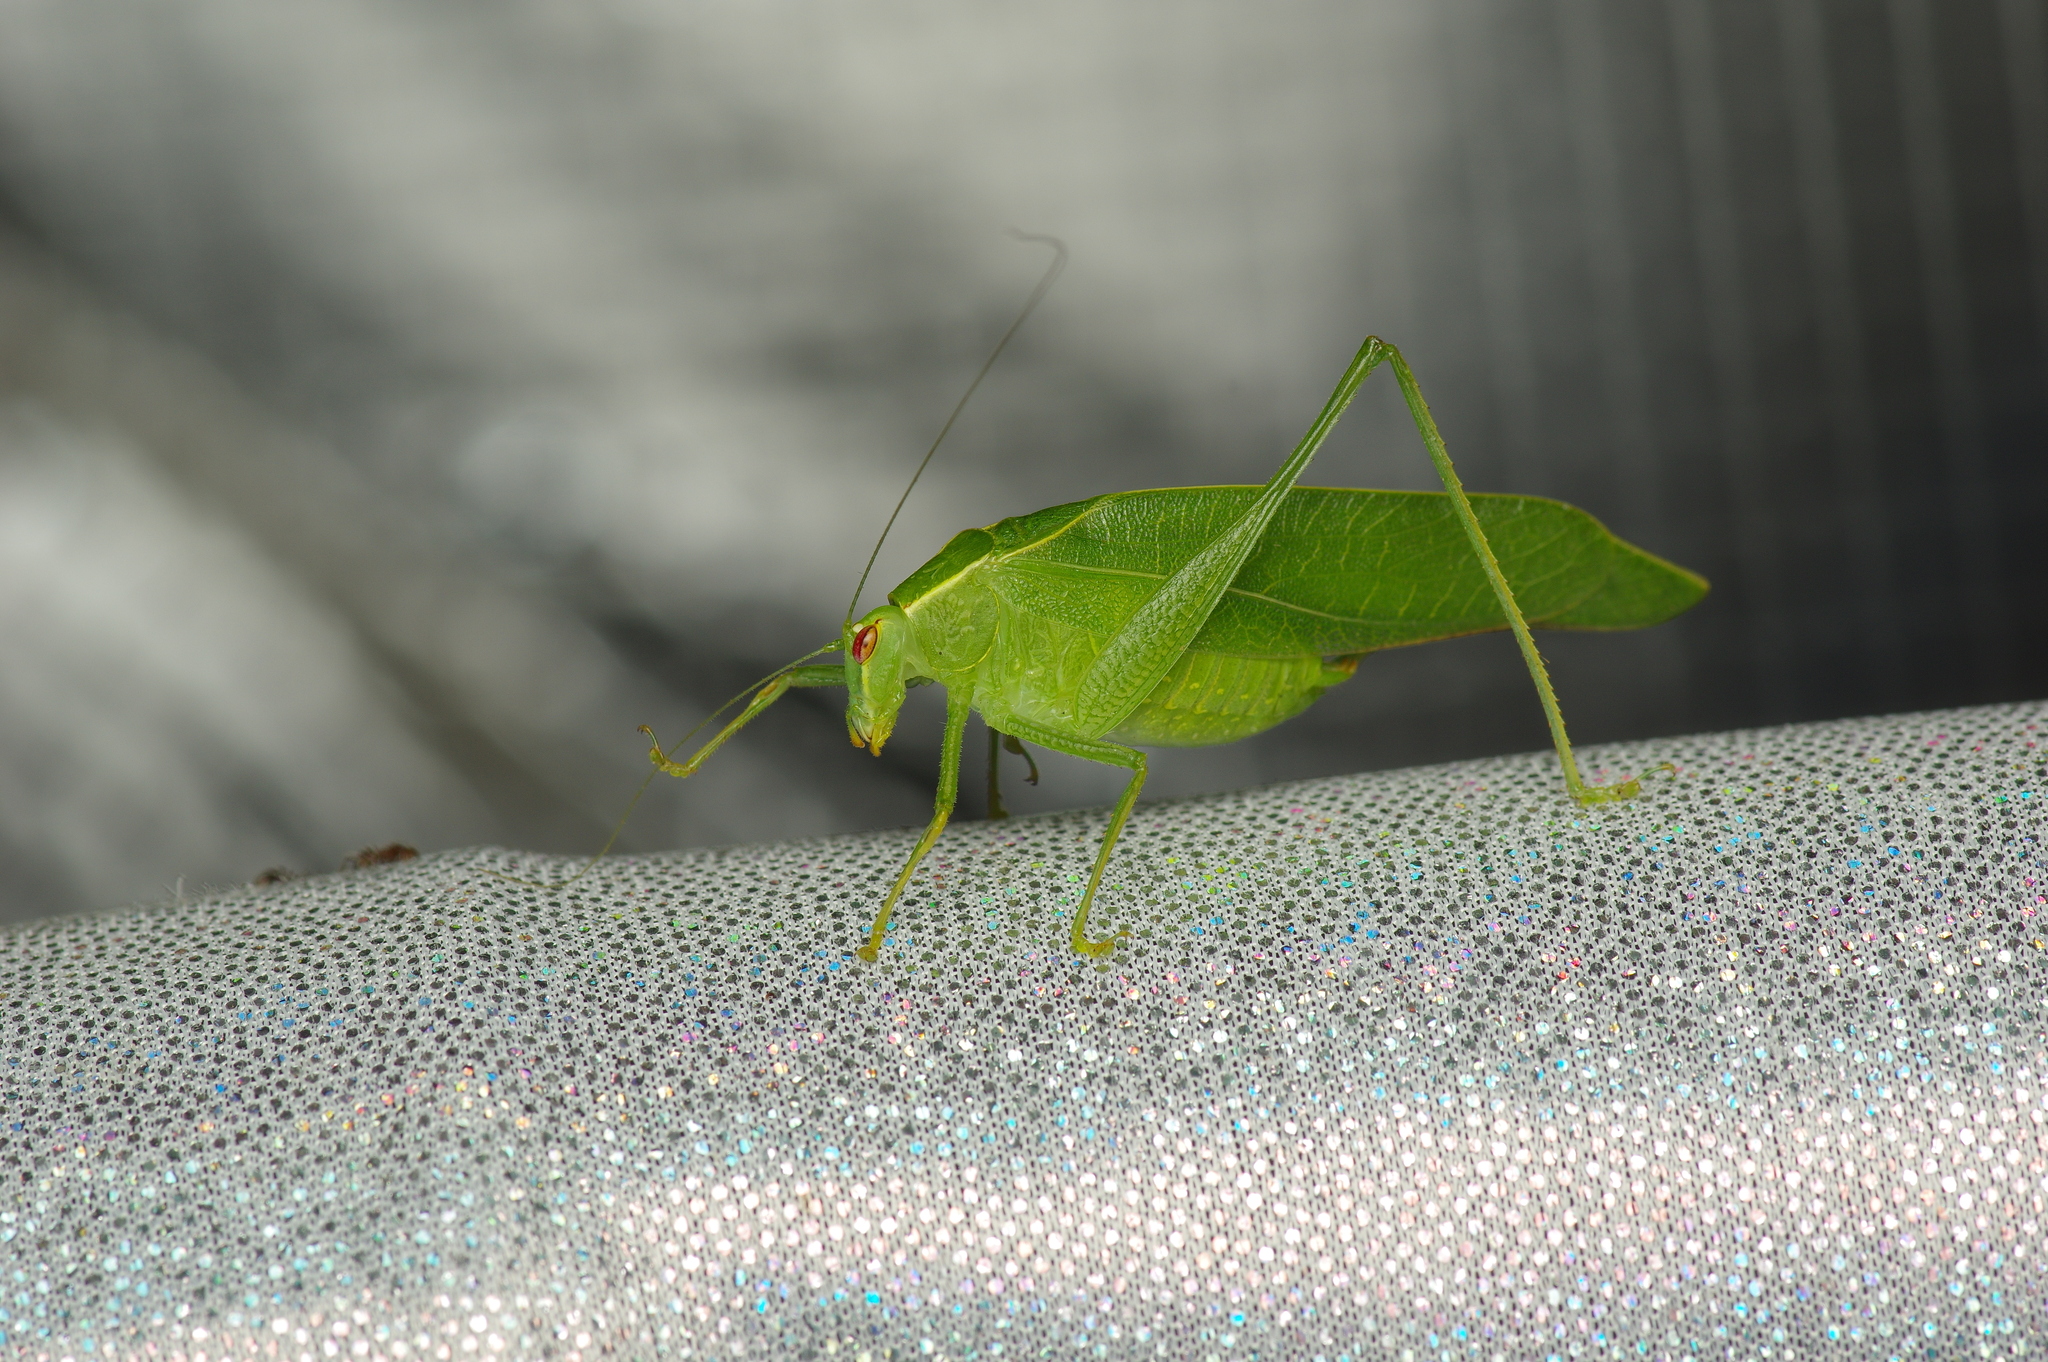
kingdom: Animalia
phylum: Arthropoda
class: Insecta
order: Orthoptera
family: Tettigoniidae
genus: Montezumina
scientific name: Montezumina modesta
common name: Modest katydid
